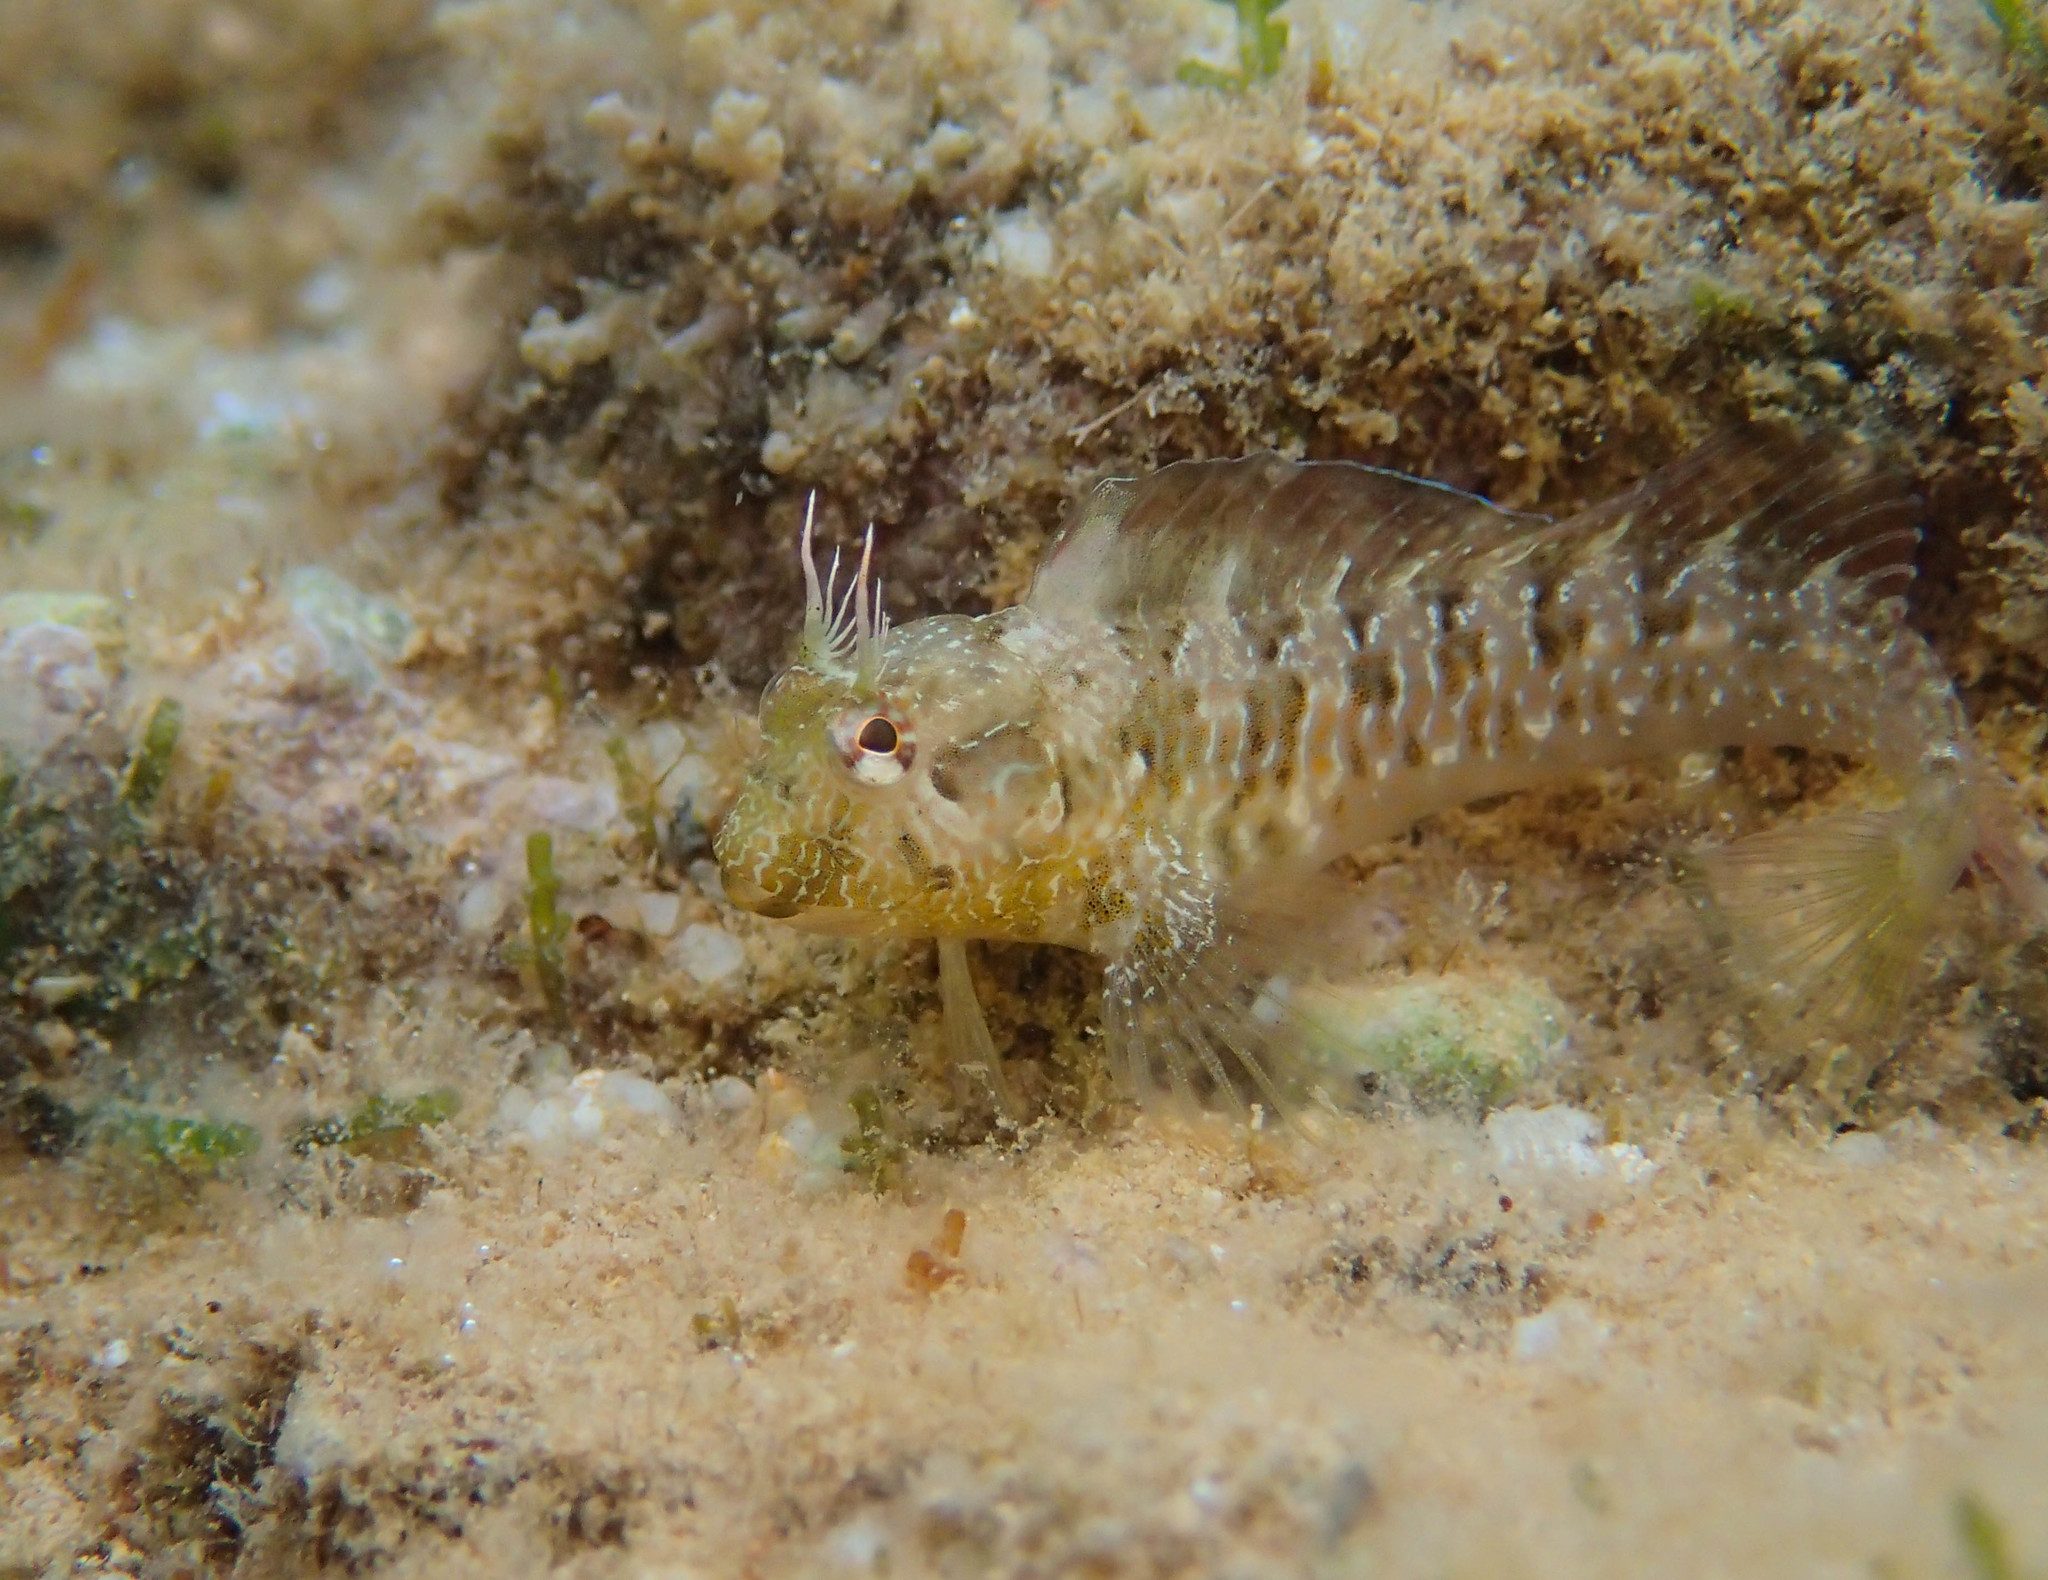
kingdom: Animalia
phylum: Chordata
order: Perciformes
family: Blenniidae
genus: Parablennius
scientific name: Parablennius incognitus
